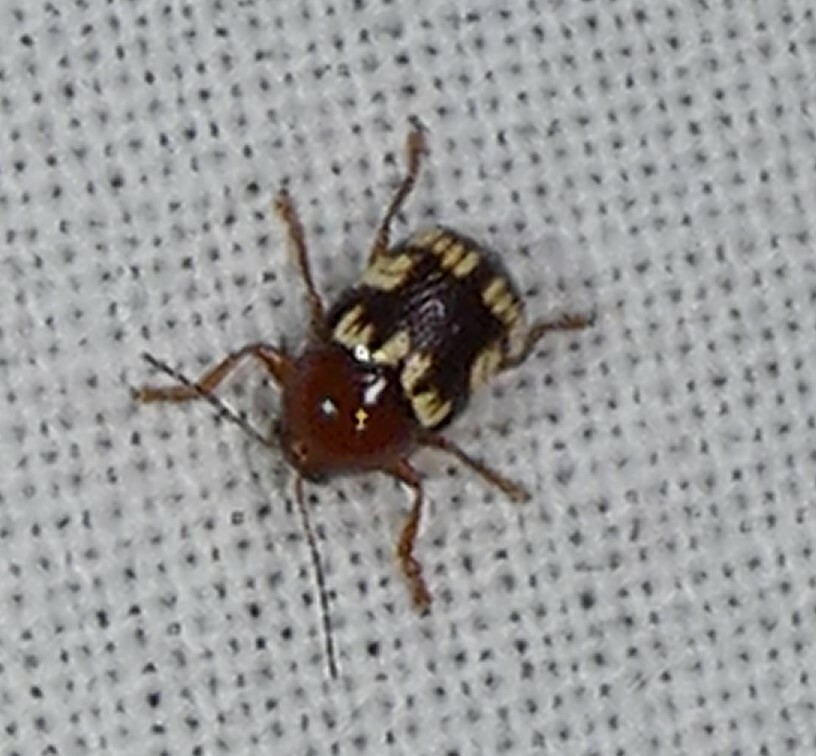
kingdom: Animalia
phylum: Arthropoda
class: Insecta
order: Coleoptera
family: Chrysomelidae
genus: Cryptocephalus
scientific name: Cryptocephalus badius
